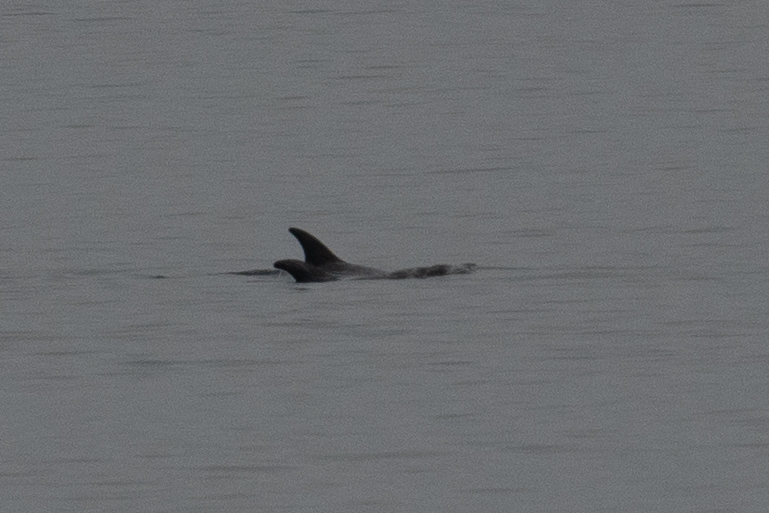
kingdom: Animalia
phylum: Chordata
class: Mammalia
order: Cetacea
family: Delphinidae
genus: Grampus
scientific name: Grampus griseus
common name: Risso's dolphin
